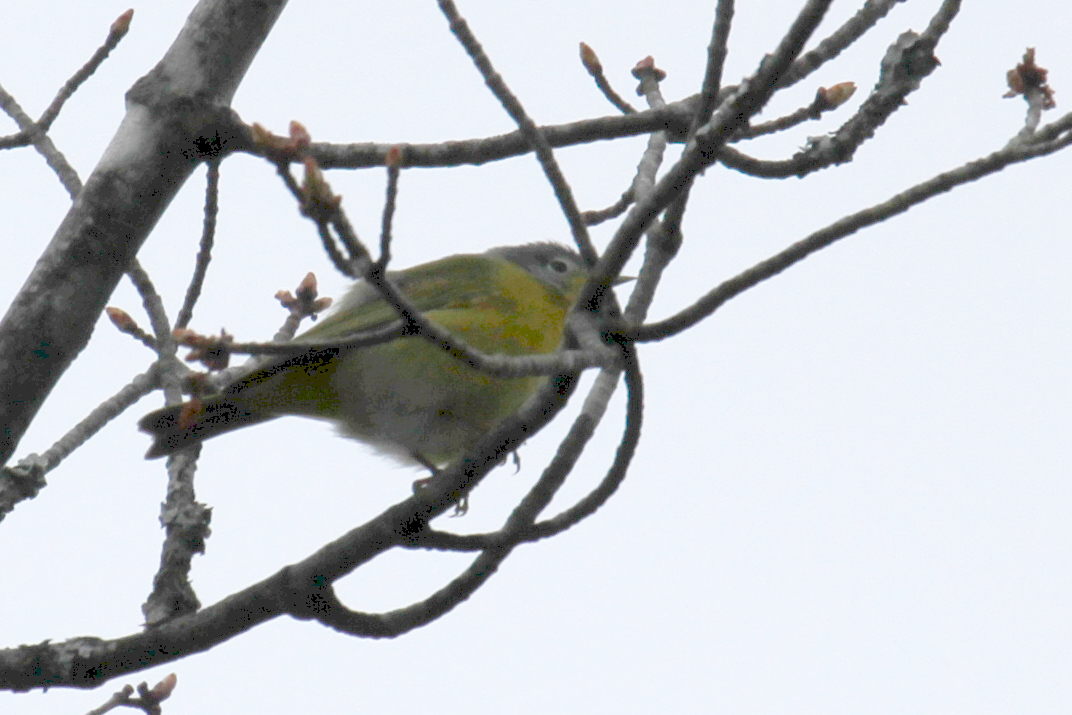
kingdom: Animalia
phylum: Chordata
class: Aves
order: Passeriformes
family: Parulidae
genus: Leiothlypis
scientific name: Leiothlypis ruficapilla
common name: Nashville warbler
